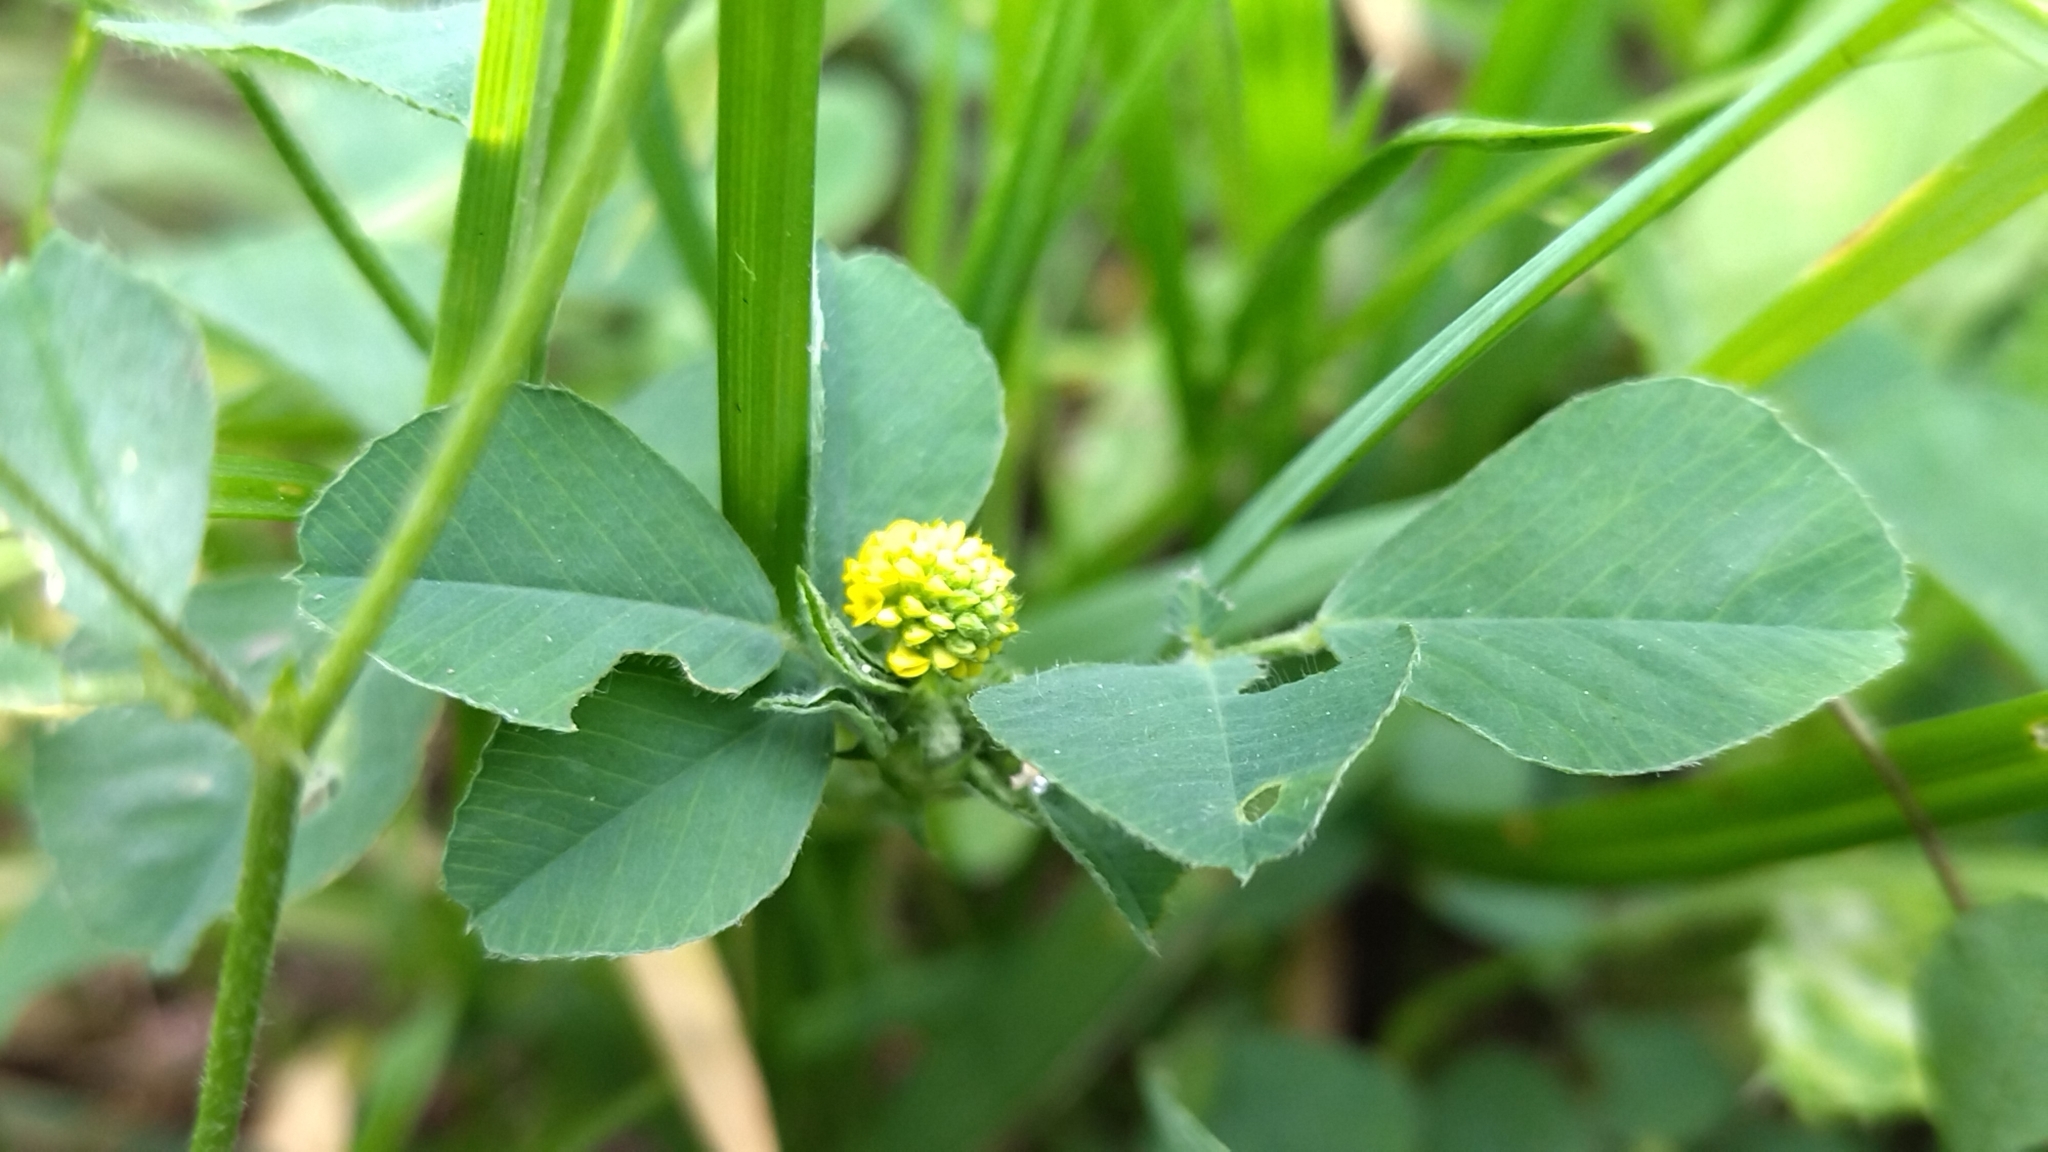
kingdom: Plantae
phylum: Tracheophyta
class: Magnoliopsida
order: Fabales
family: Fabaceae
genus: Medicago
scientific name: Medicago lupulina
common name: Black medick
